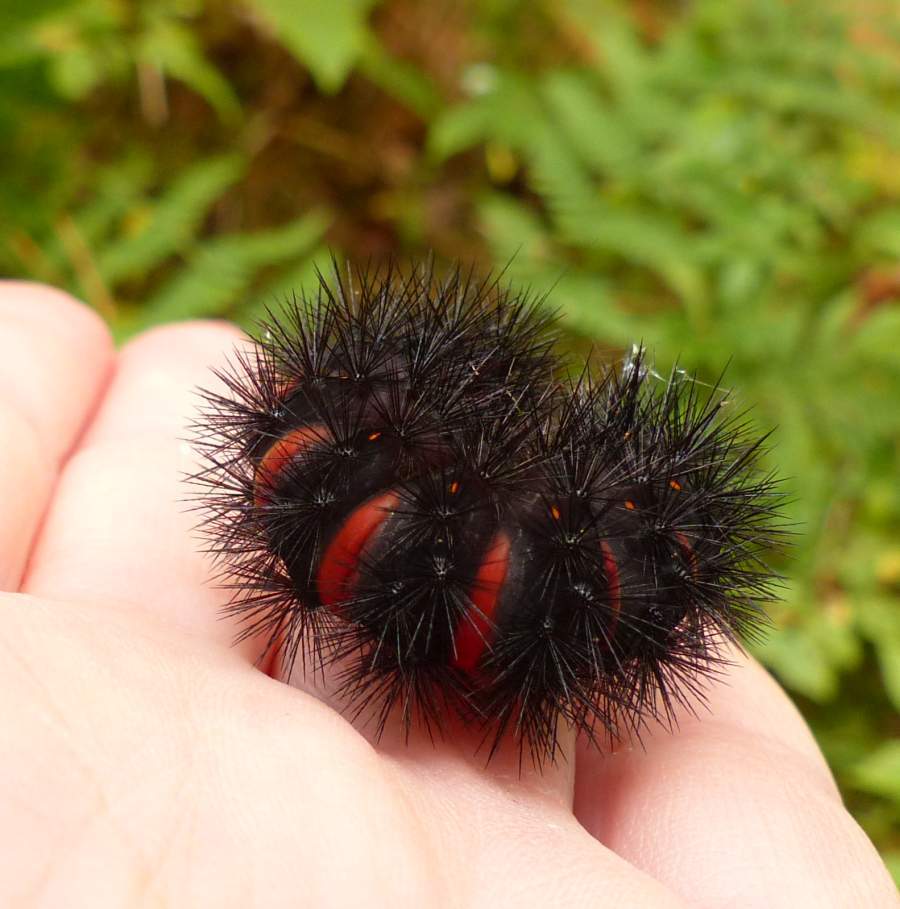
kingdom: Animalia
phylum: Arthropoda
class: Insecta
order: Lepidoptera
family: Erebidae
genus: Hypercompe
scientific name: Hypercompe scribonia
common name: Giant leopard moth
